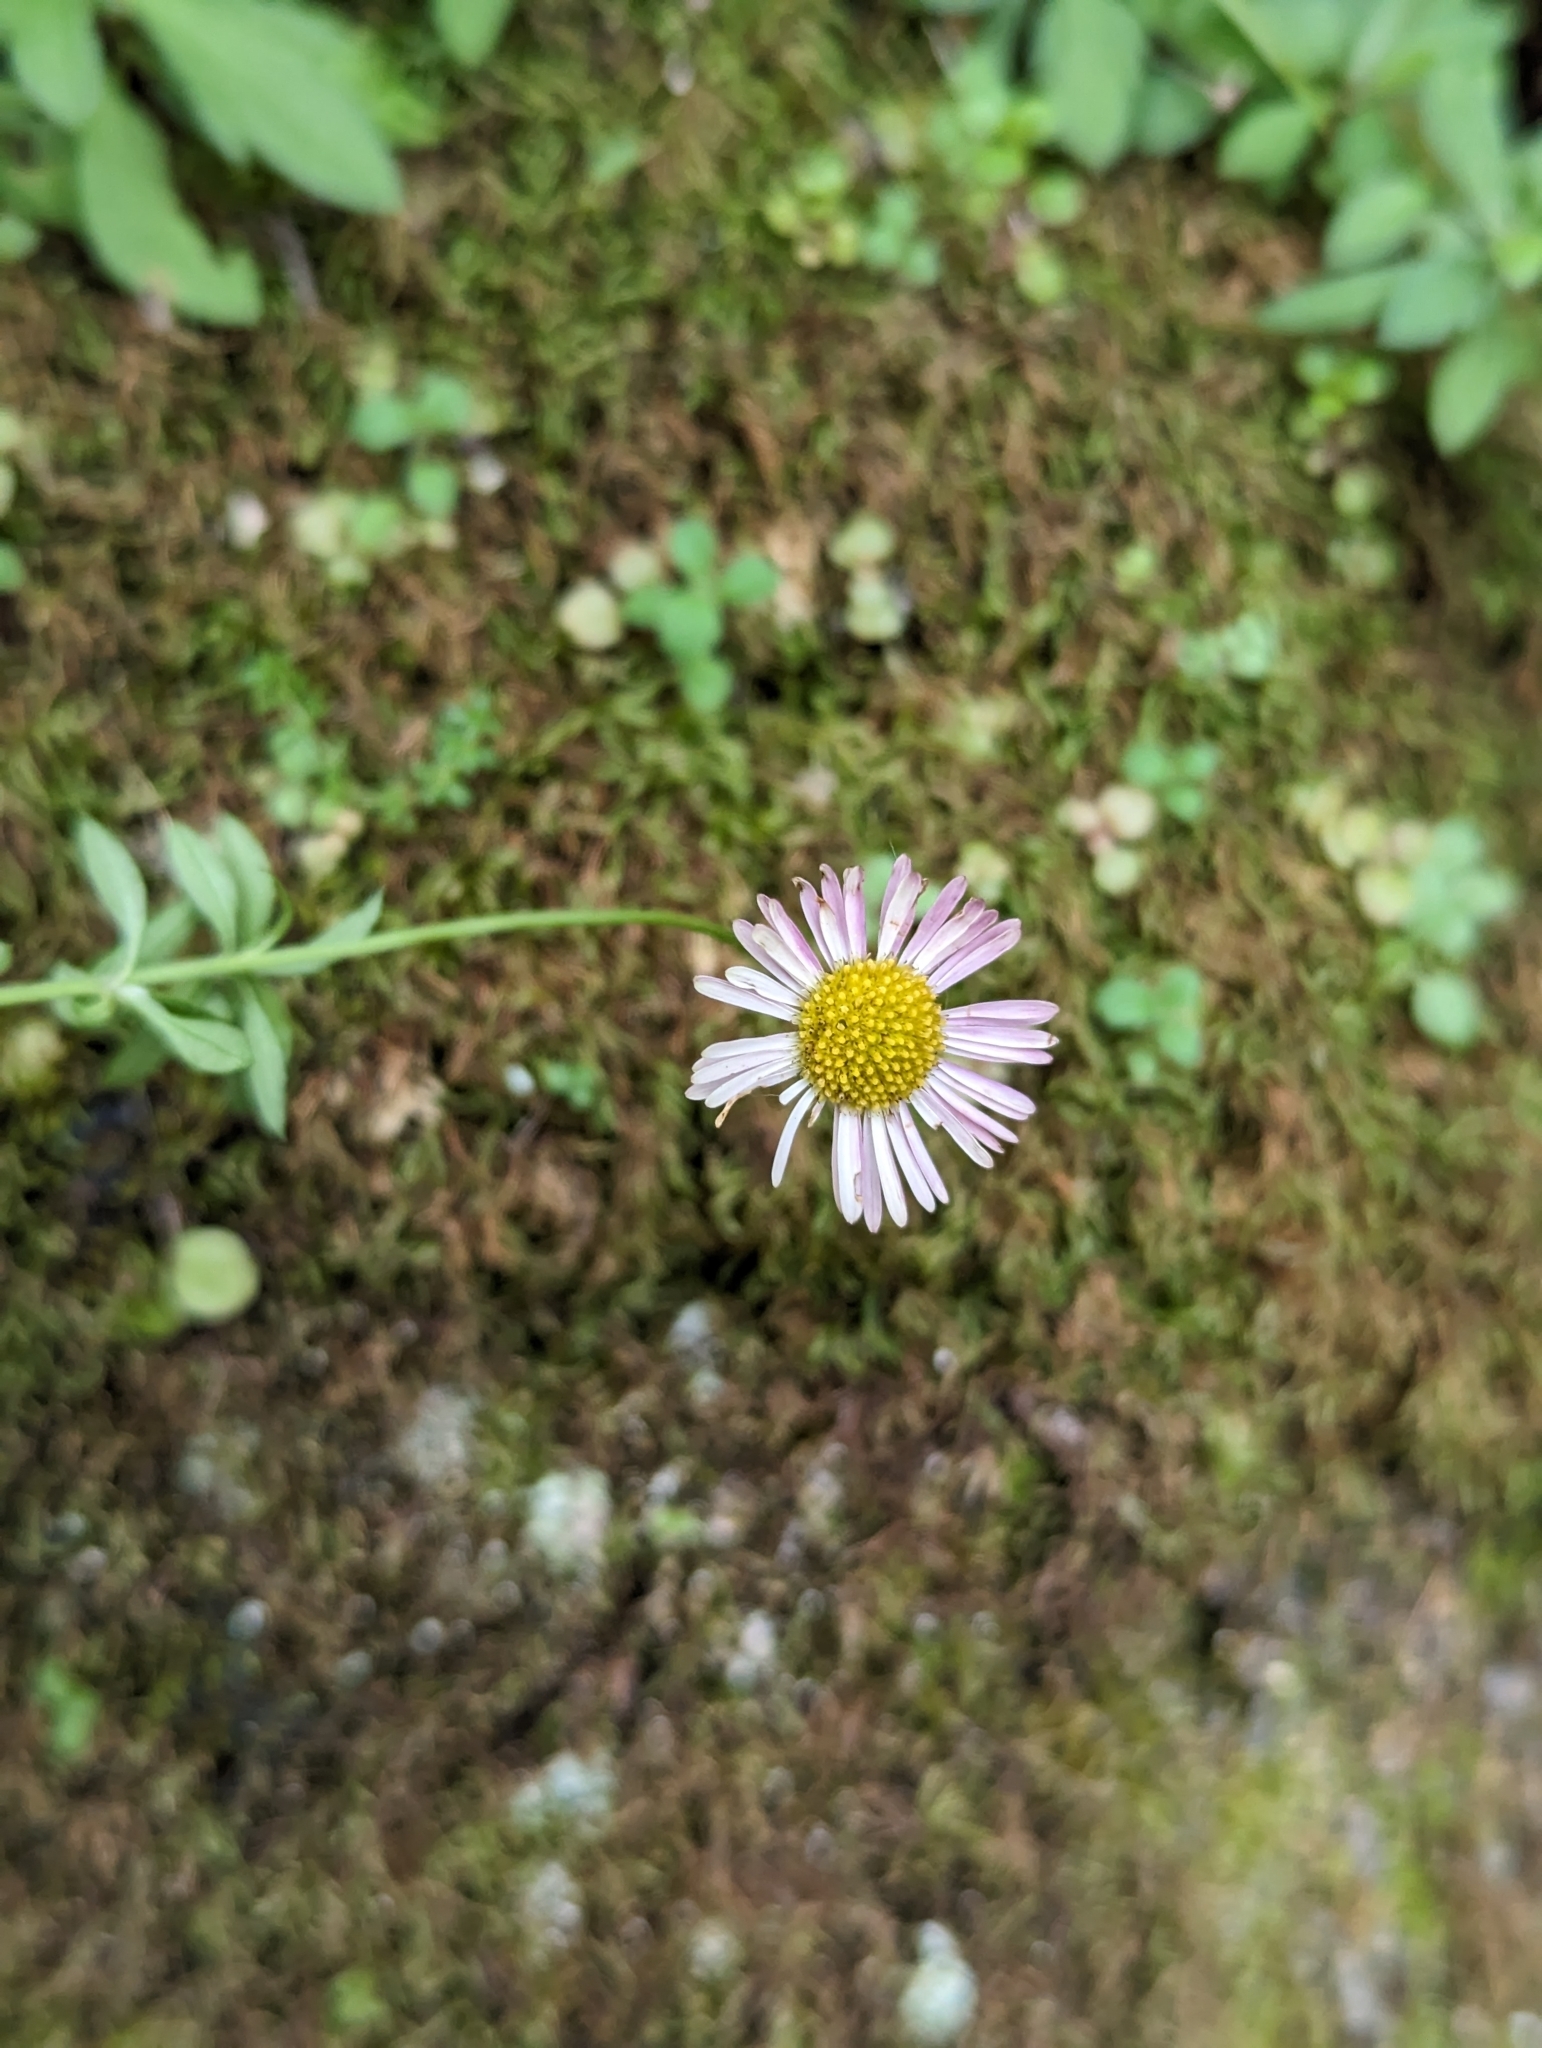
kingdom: Plantae
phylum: Tracheophyta
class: Magnoliopsida
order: Asterales
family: Asteraceae
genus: Erigeron
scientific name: Erigeron karvinskianus
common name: Mexican fleabane
